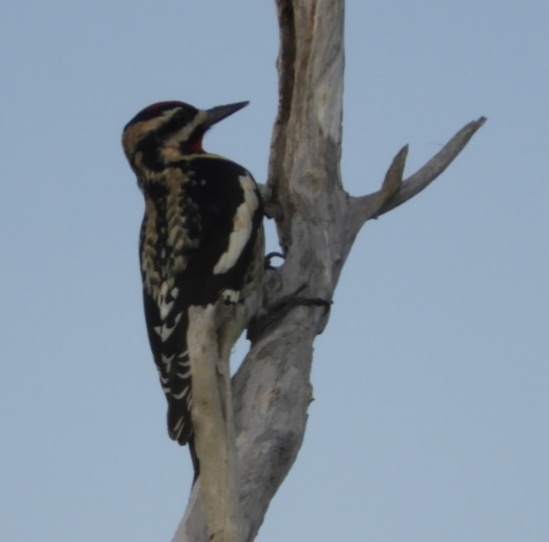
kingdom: Animalia
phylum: Chordata
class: Aves
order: Piciformes
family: Picidae
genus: Sphyrapicus
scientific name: Sphyrapicus varius
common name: Yellow-bellied sapsucker
